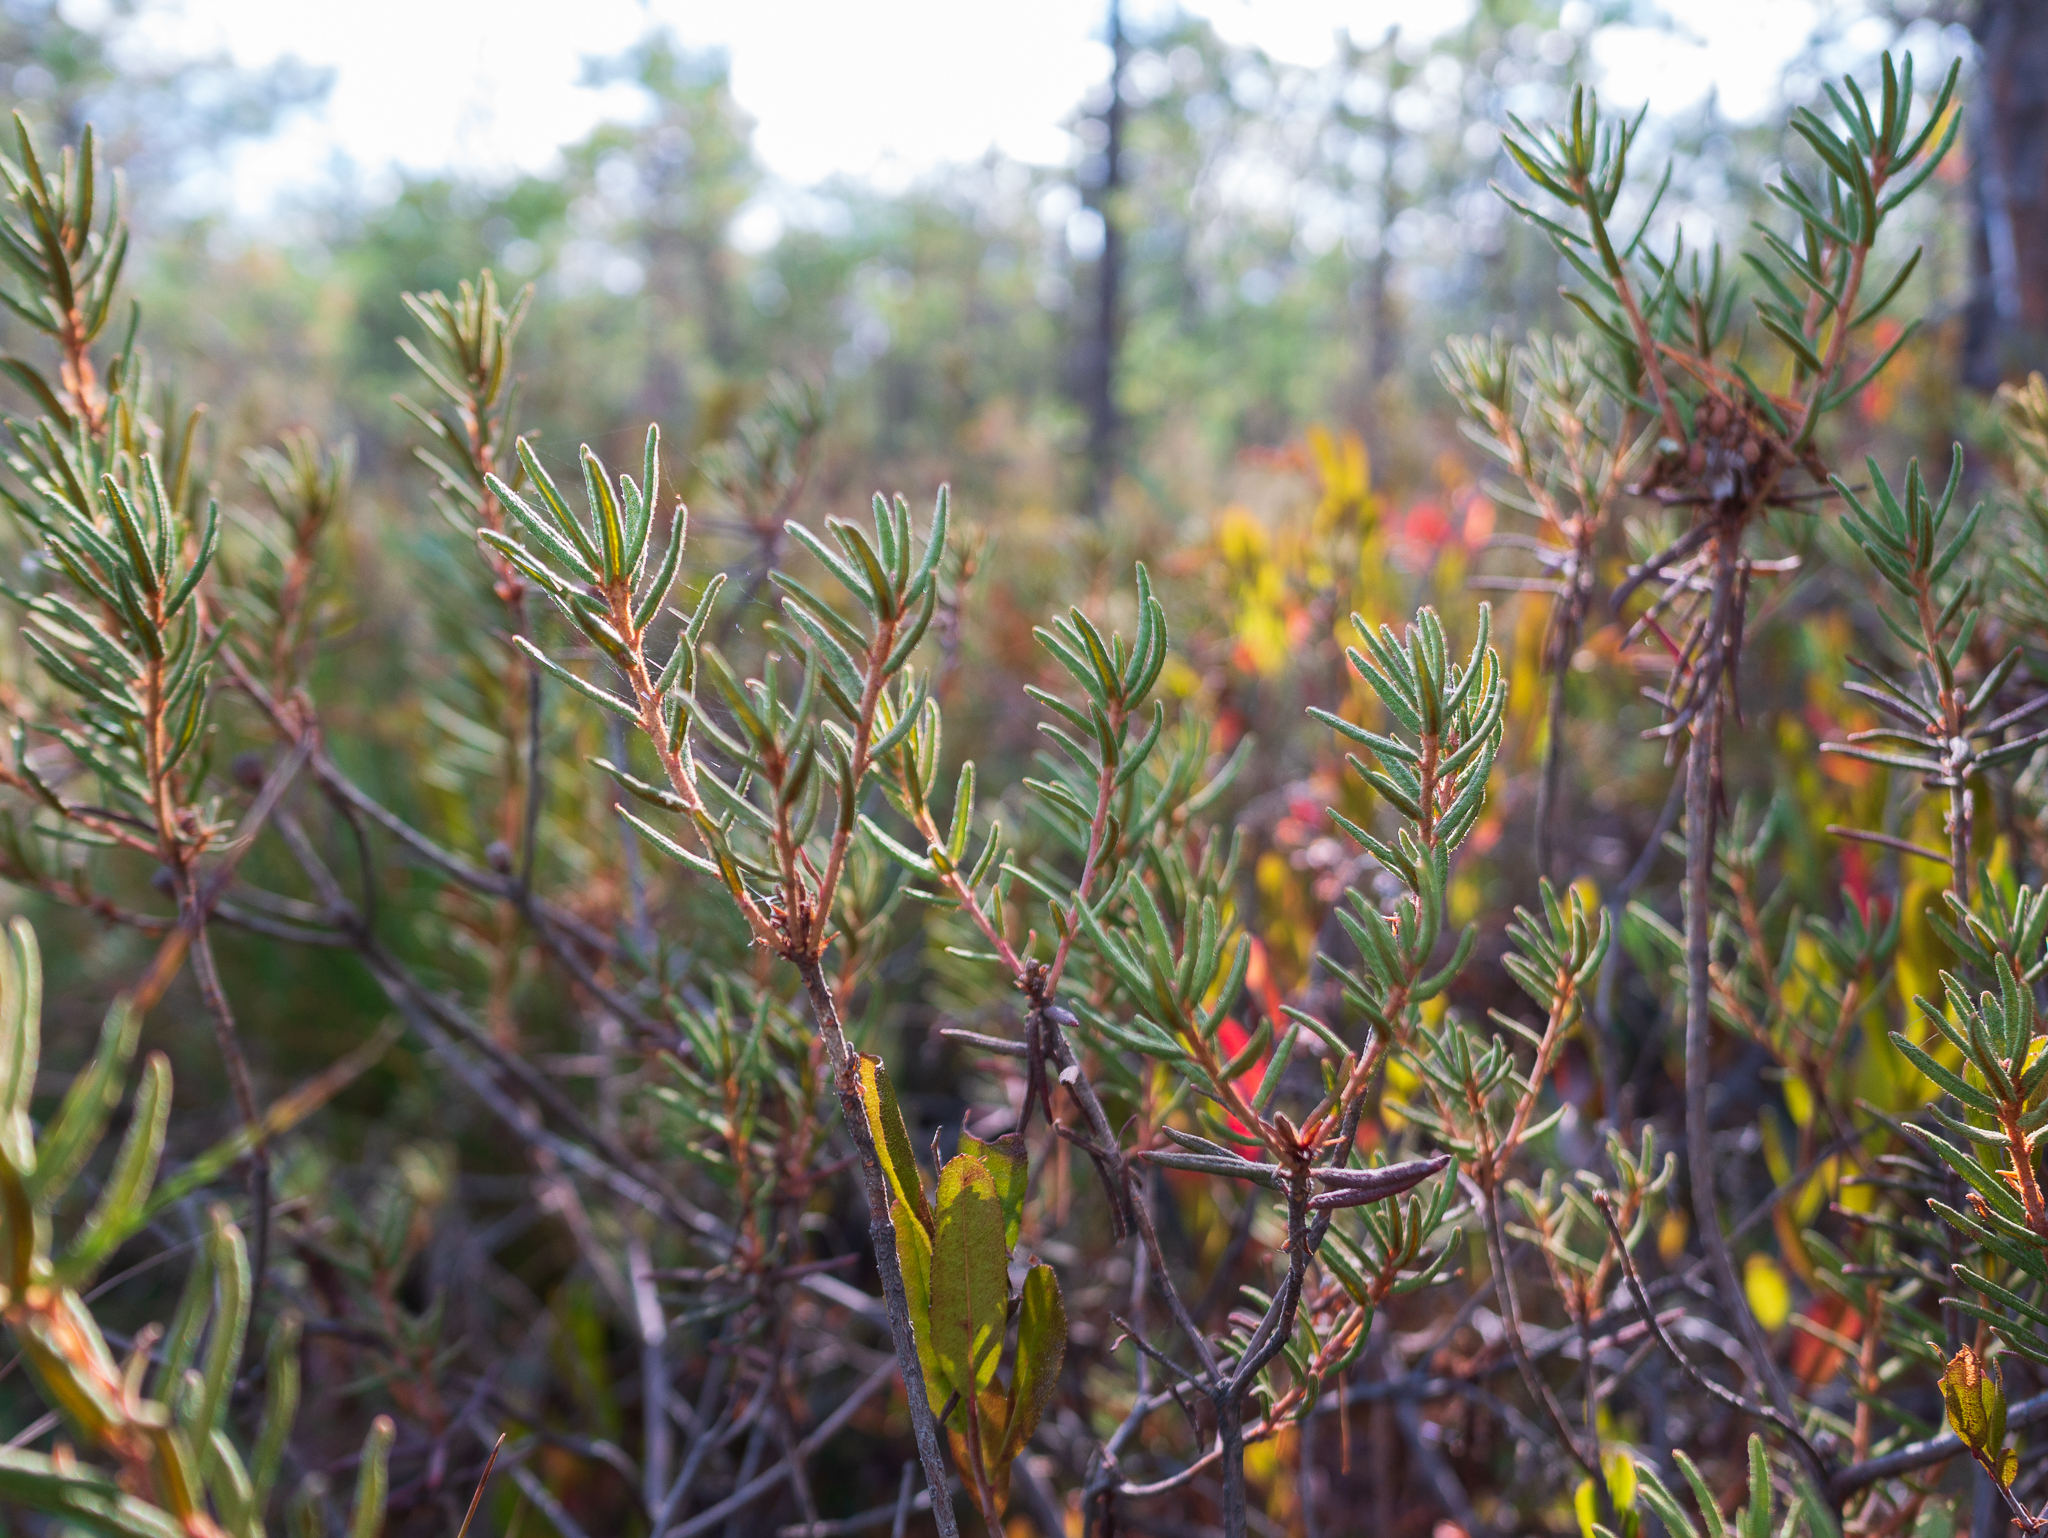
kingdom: Plantae
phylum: Tracheophyta
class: Magnoliopsida
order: Ericales
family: Ericaceae
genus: Rhododendron
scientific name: Rhododendron tomentosum
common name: Marsh labrador tea
